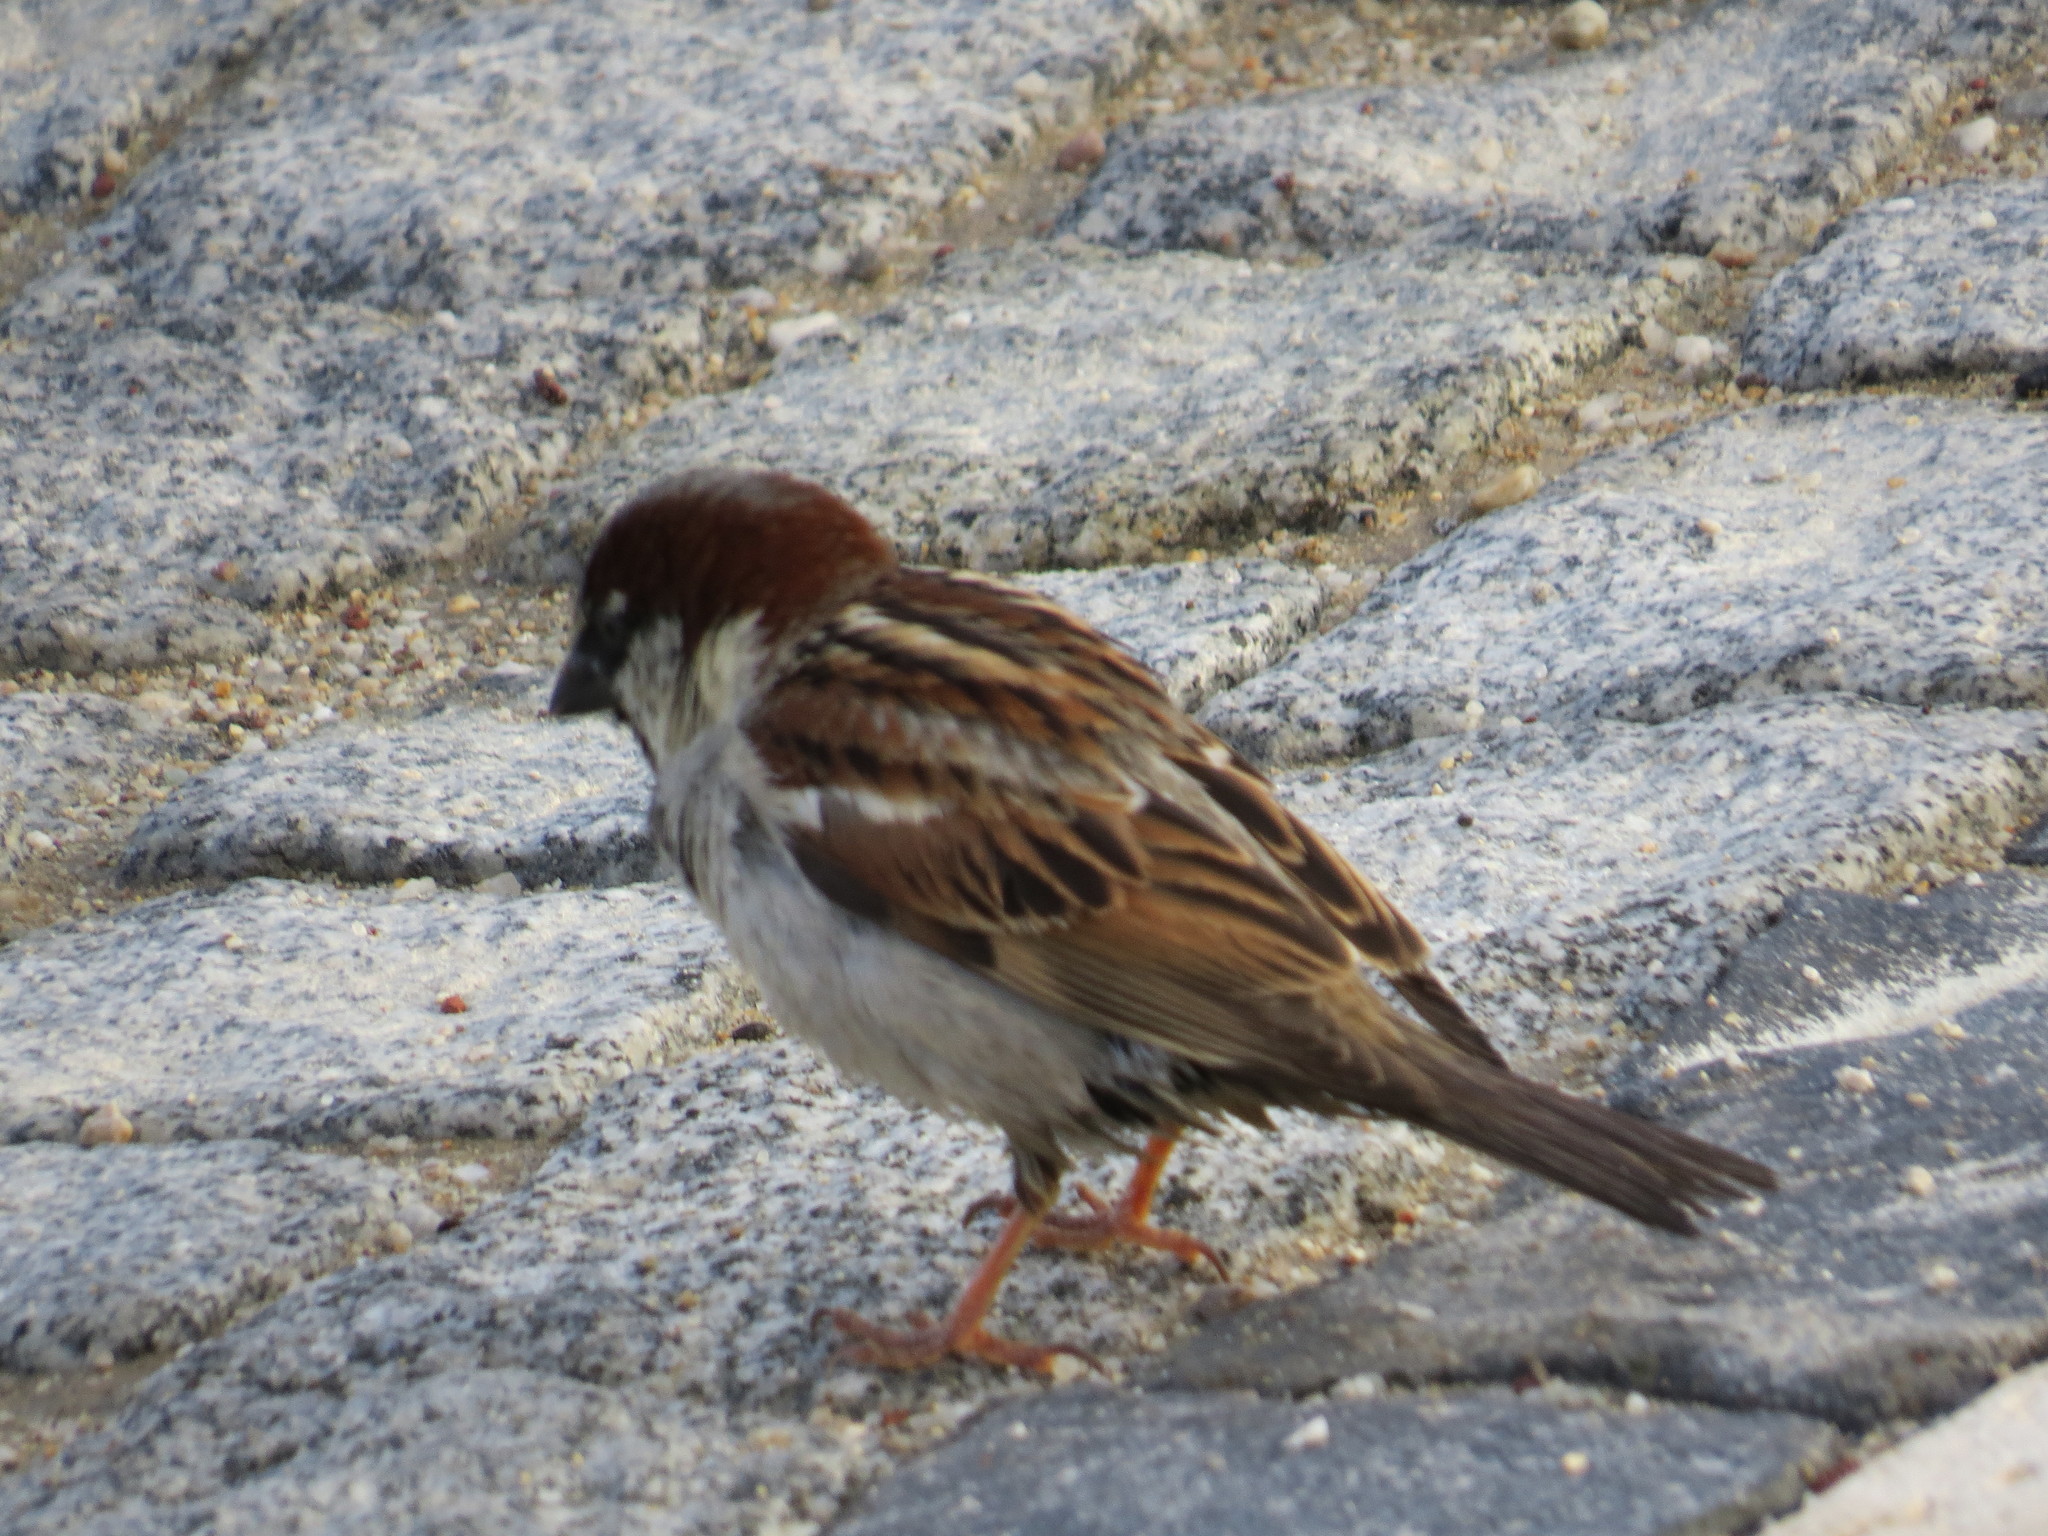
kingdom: Animalia
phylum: Chordata
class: Aves
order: Passeriformes
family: Passeridae
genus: Passer
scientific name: Passer domesticus
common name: House sparrow
